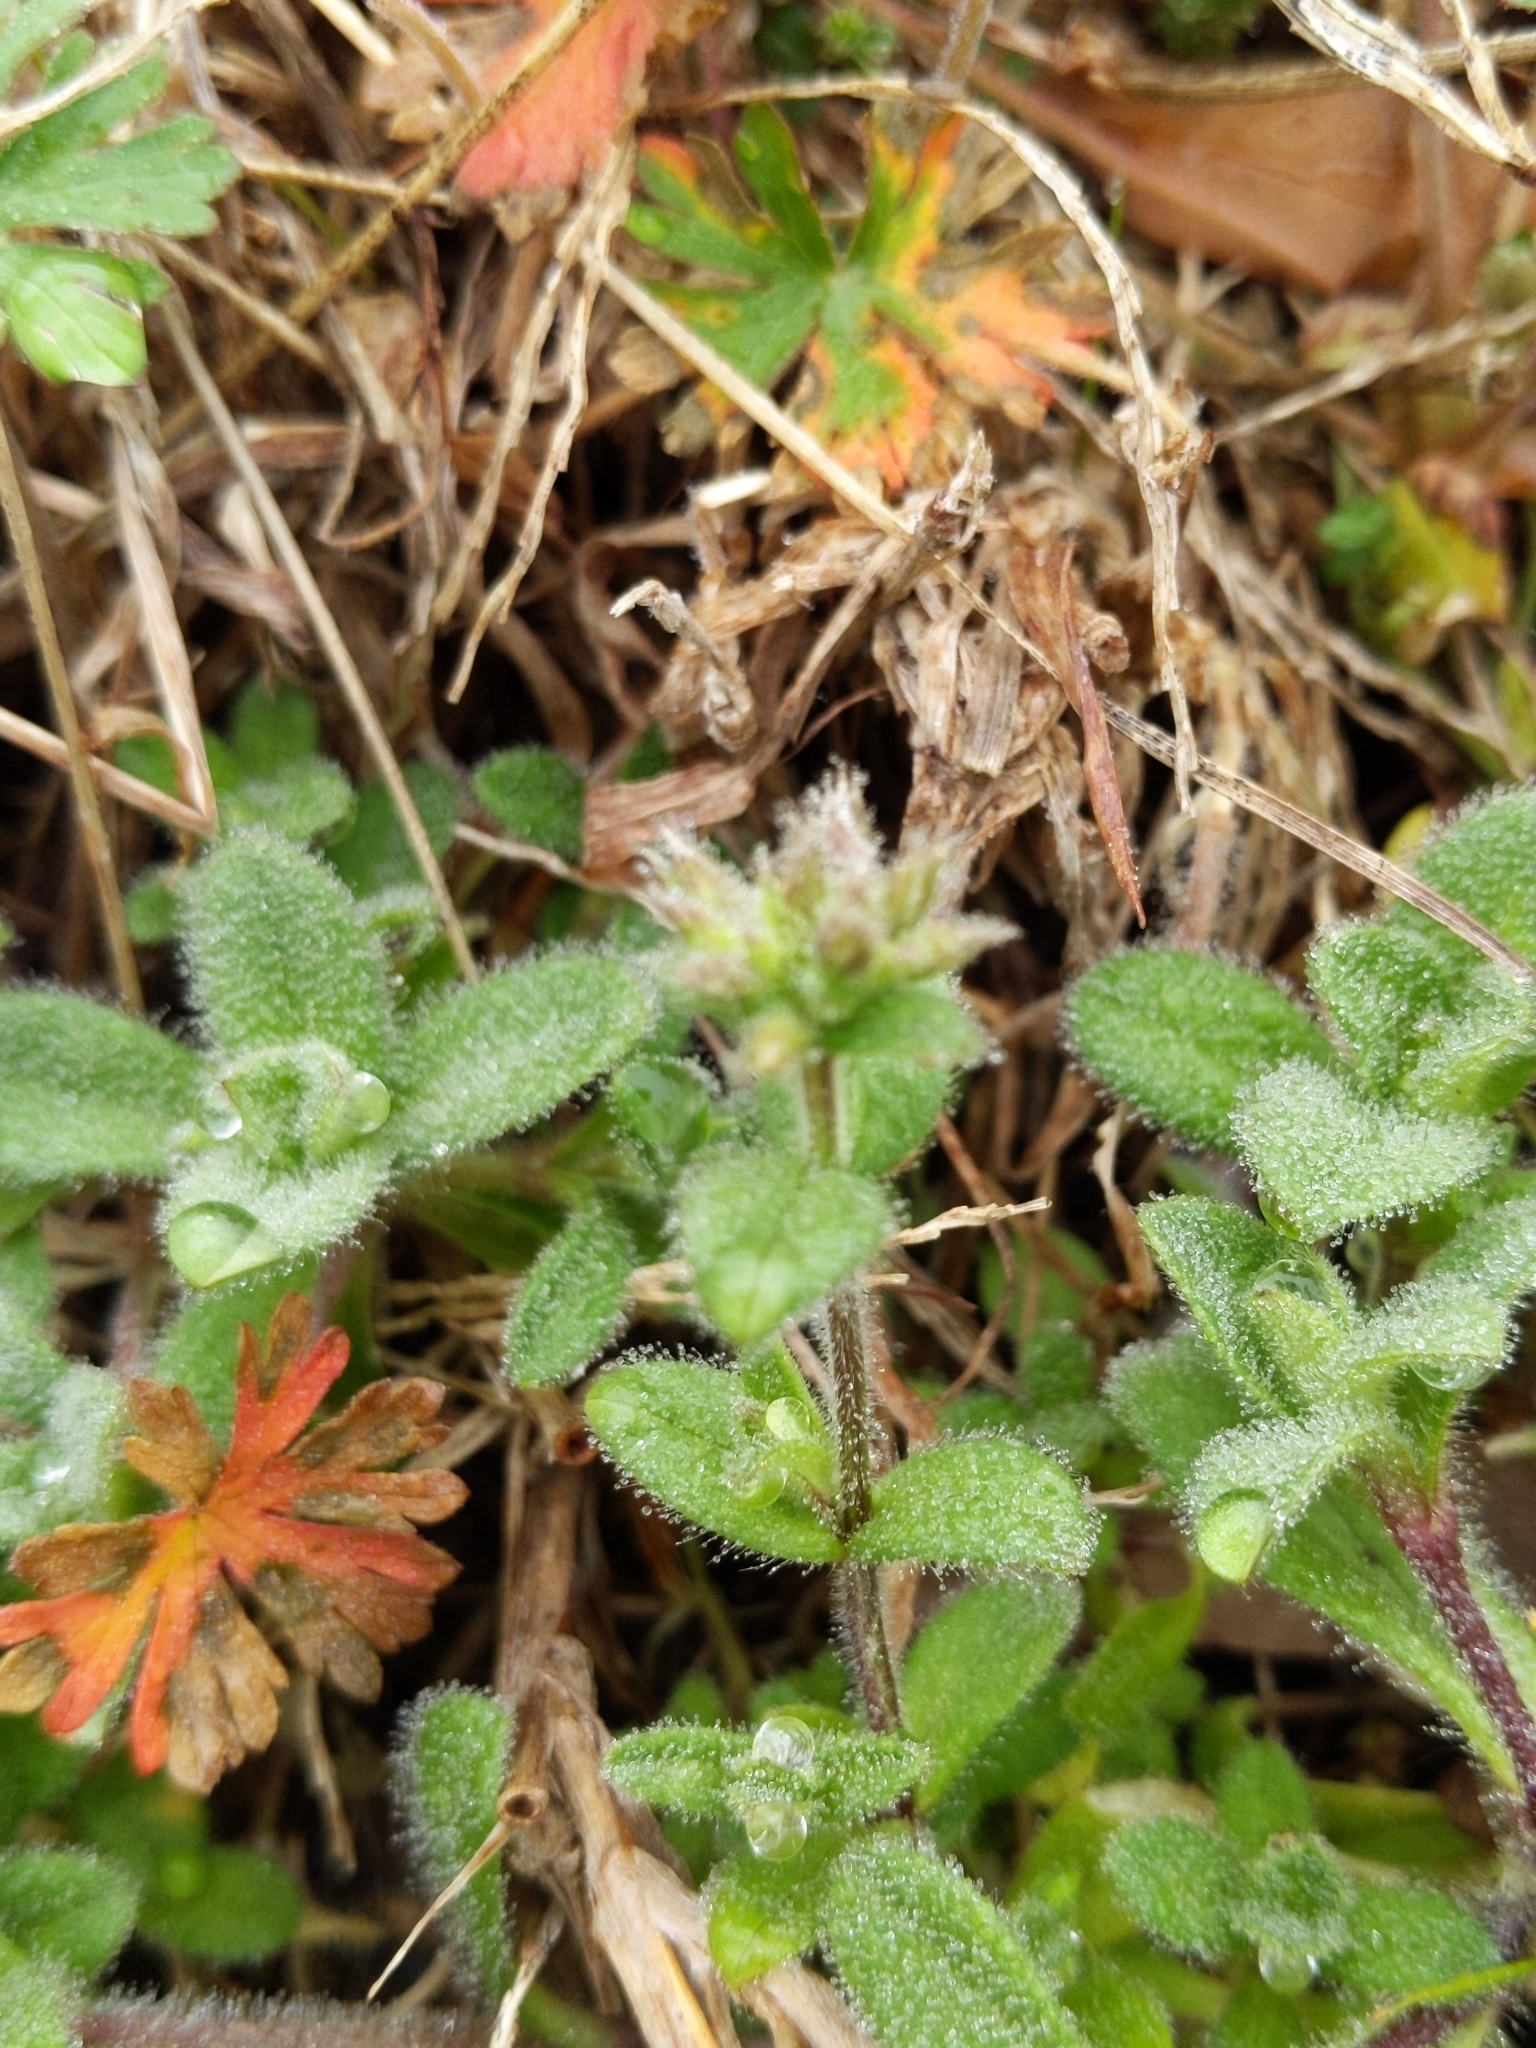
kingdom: Plantae
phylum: Tracheophyta
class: Magnoliopsida
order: Caryophyllales
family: Caryophyllaceae
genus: Cerastium
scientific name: Cerastium glomeratum
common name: Sticky chickweed
